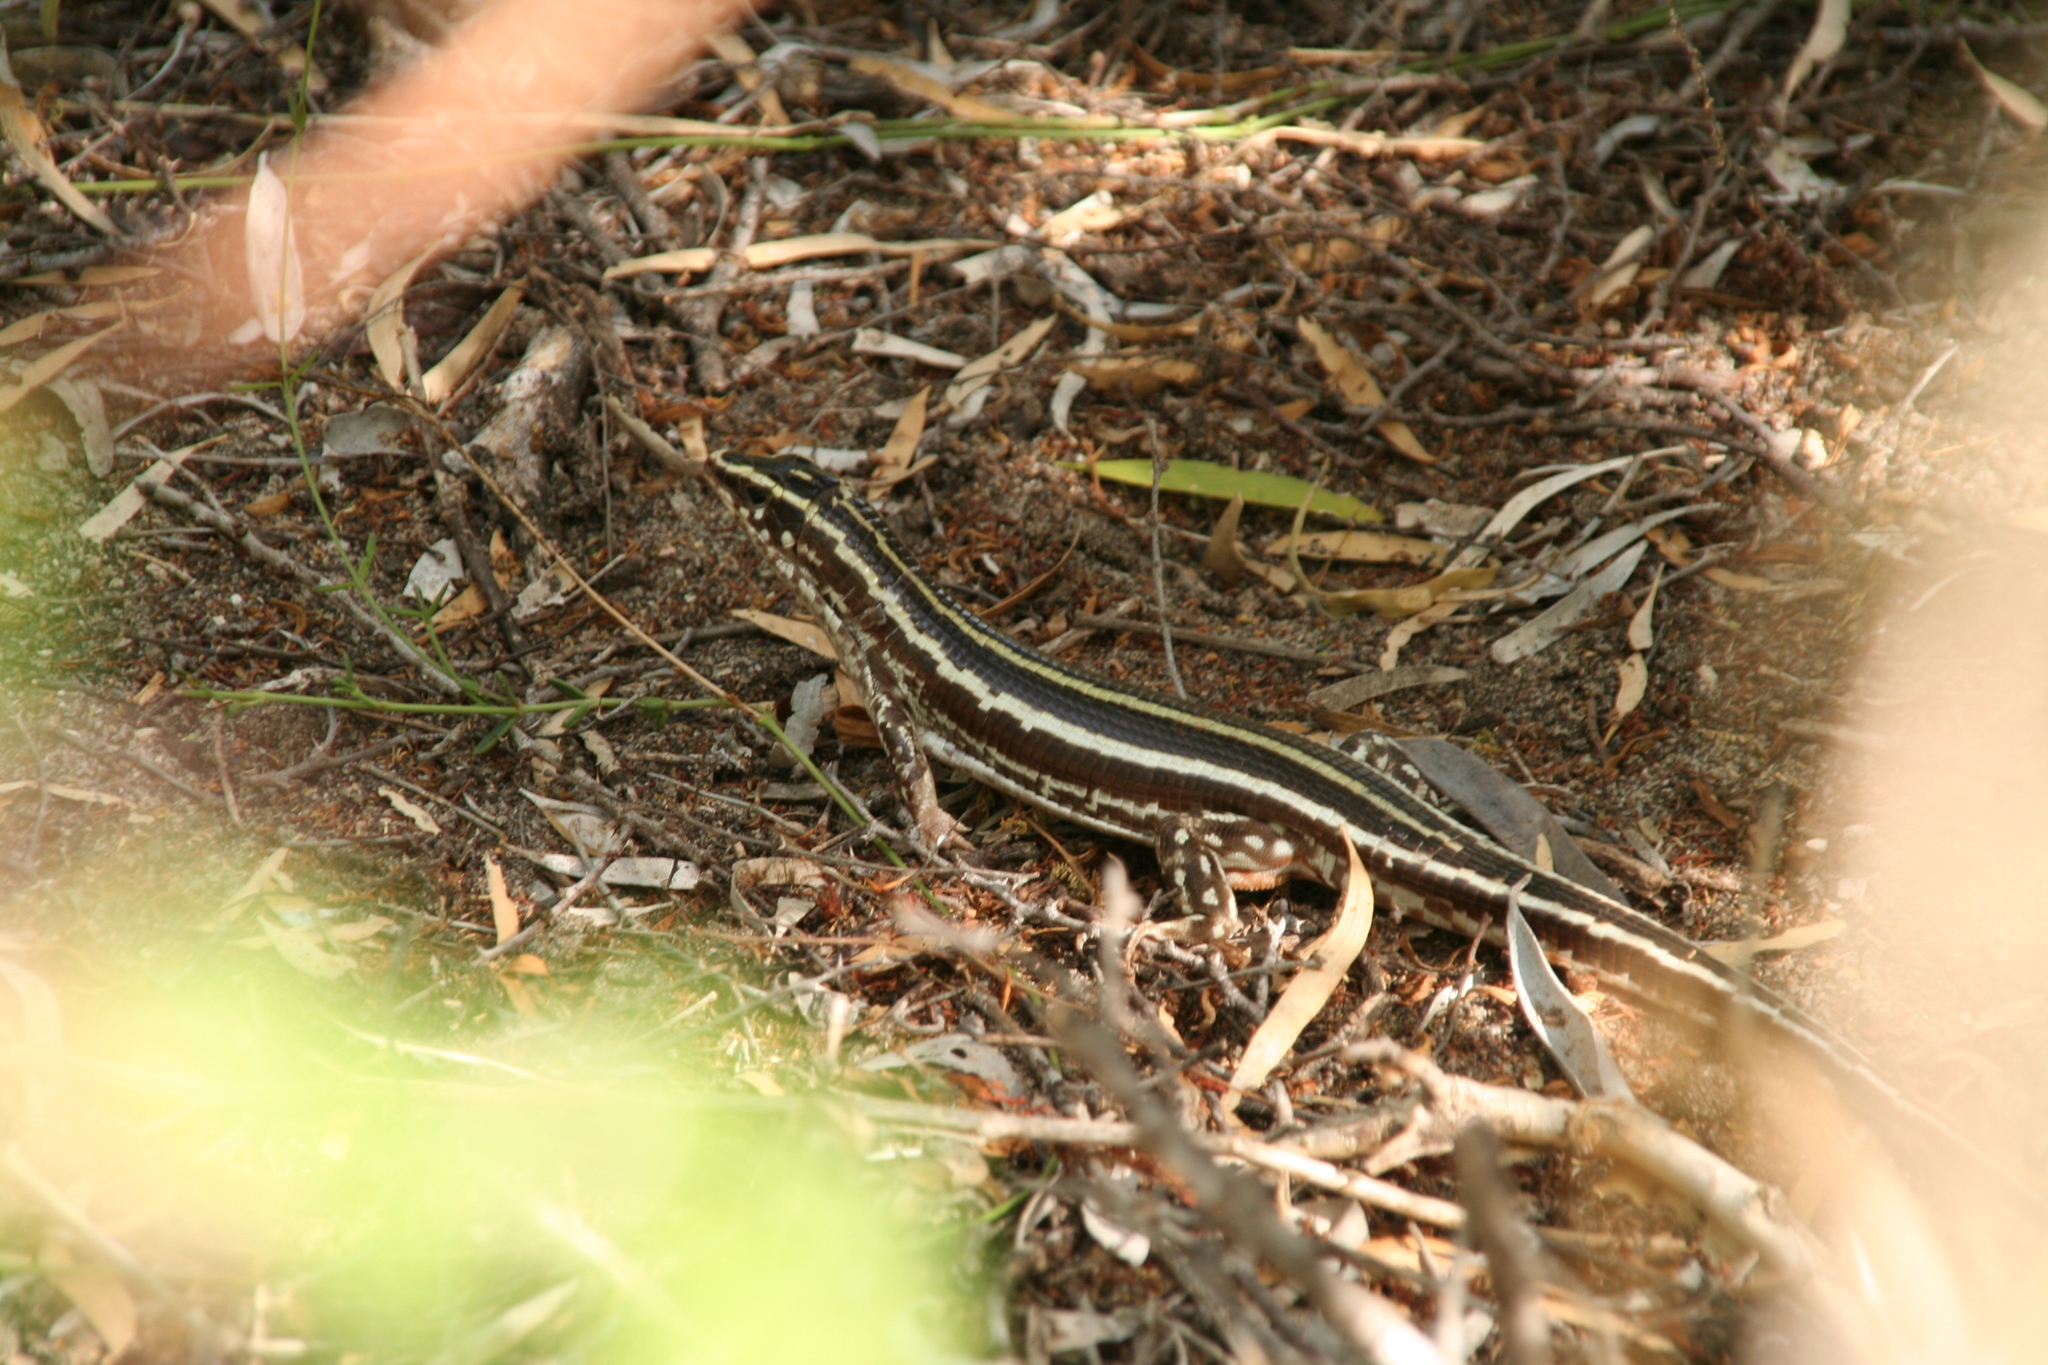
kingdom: Animalia
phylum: Chordata
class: Squamata
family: Gerrhosauridae
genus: Zonosaurus
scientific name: Zonosaurus trilineatus
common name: Three-lined girdled lizard
